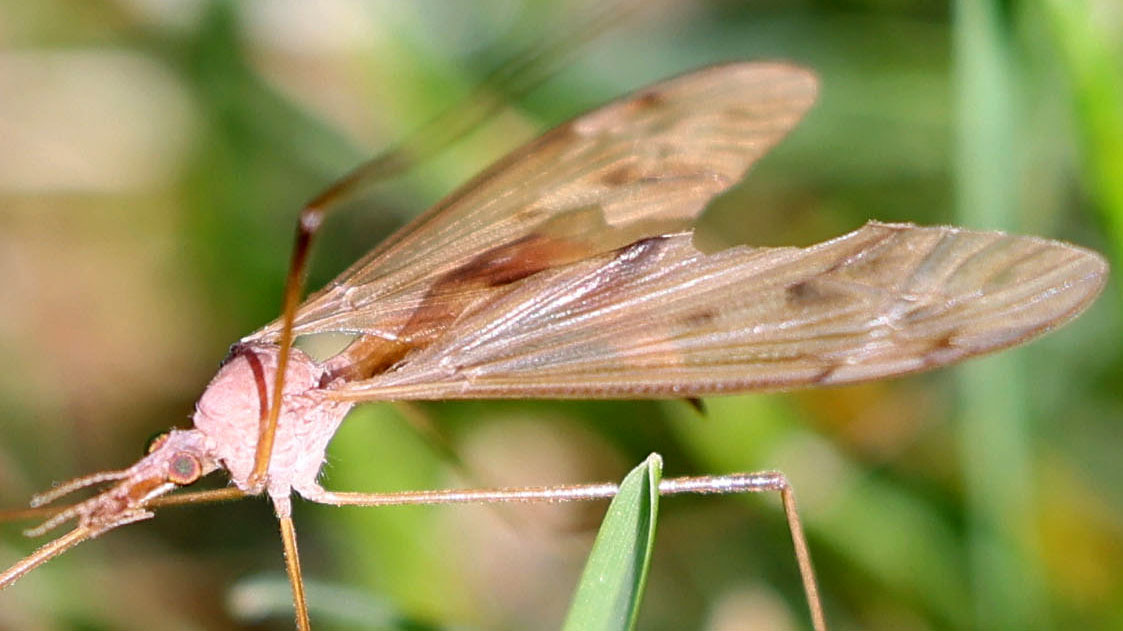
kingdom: Animalia
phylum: Arthropoda
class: Insecta
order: Diptera
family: Tipulidae
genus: Tipula
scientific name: Tipula
